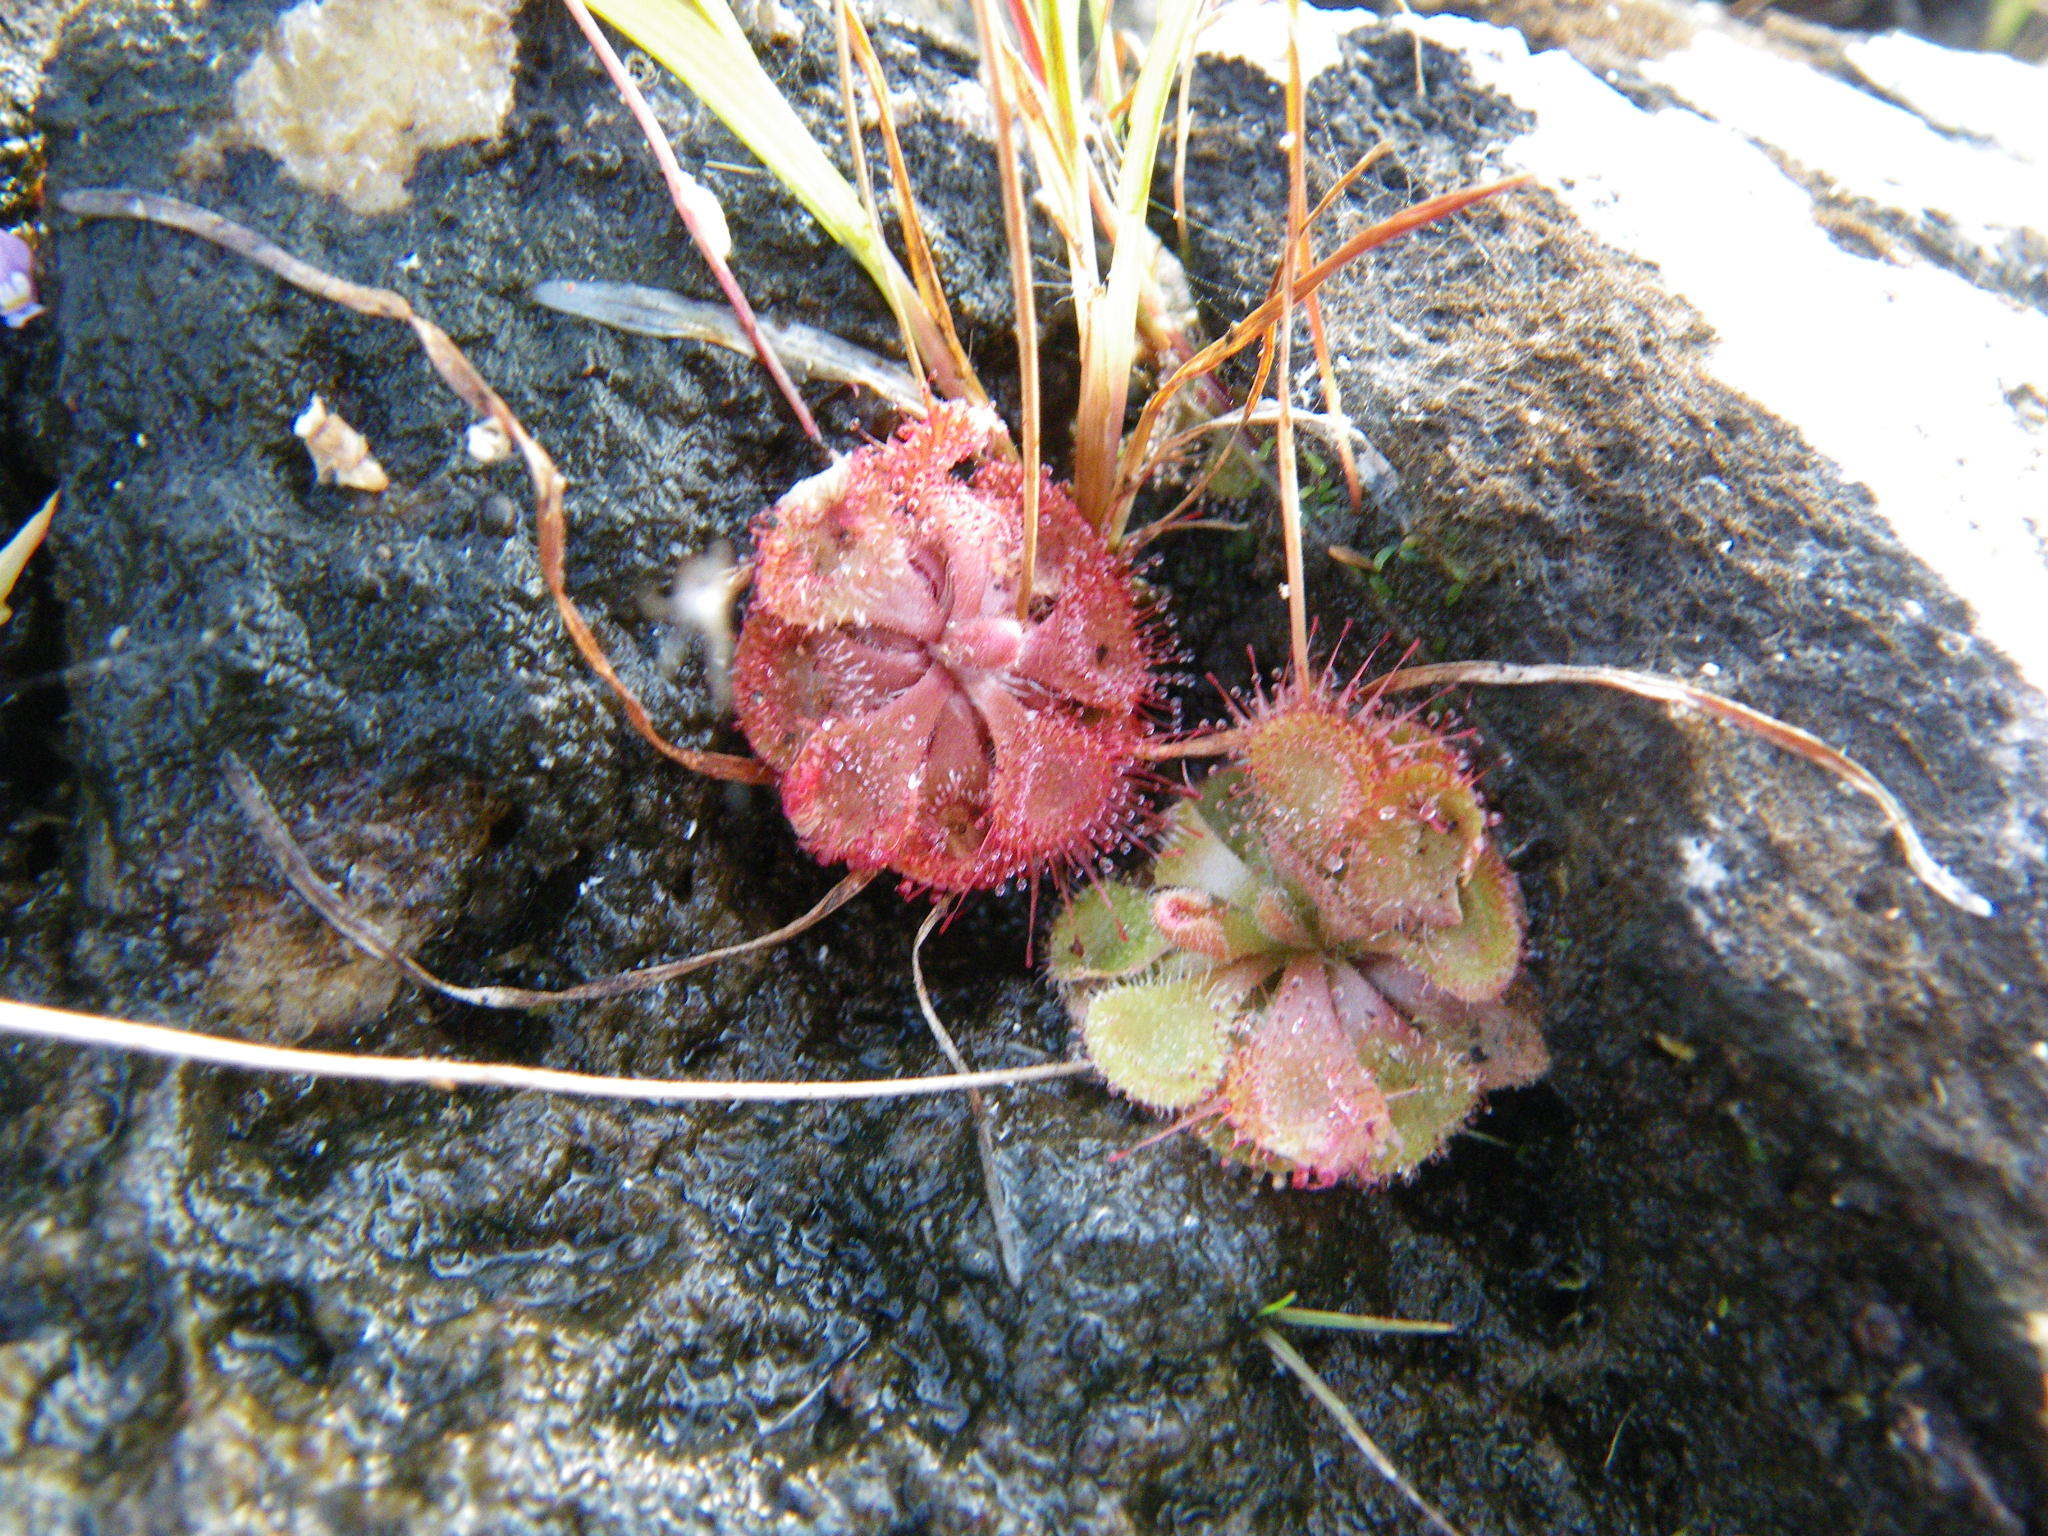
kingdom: Plantae
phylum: Tracheophyta
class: Magnoliopsida
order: Caryophyllales
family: Droseraceae
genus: Drosera
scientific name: Drosera spatulata
